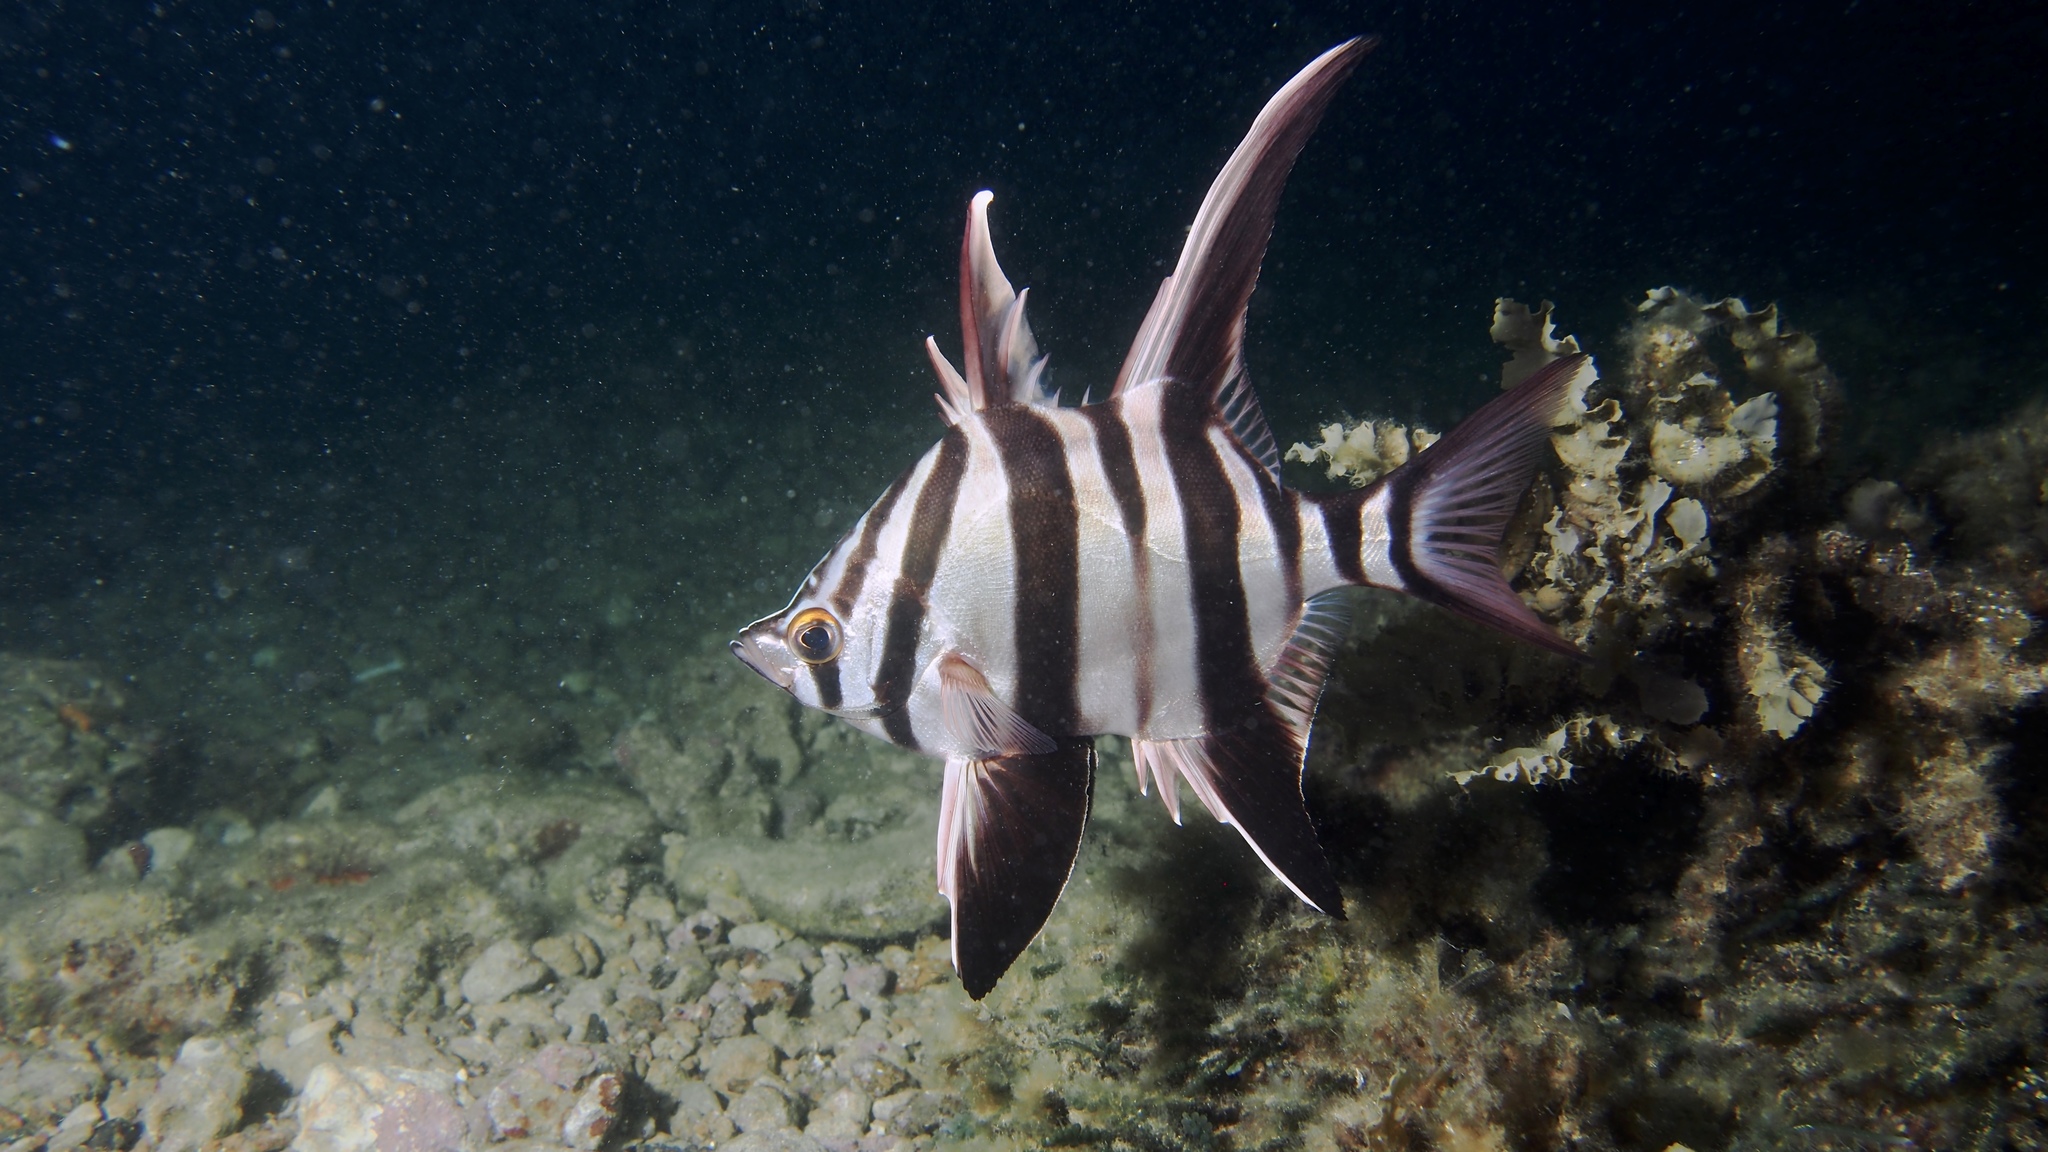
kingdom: Animalia
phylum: Chordata
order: Perciformes
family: Enoplosidae
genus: Enoplosus
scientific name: Enoplosus armatus
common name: Old wife
